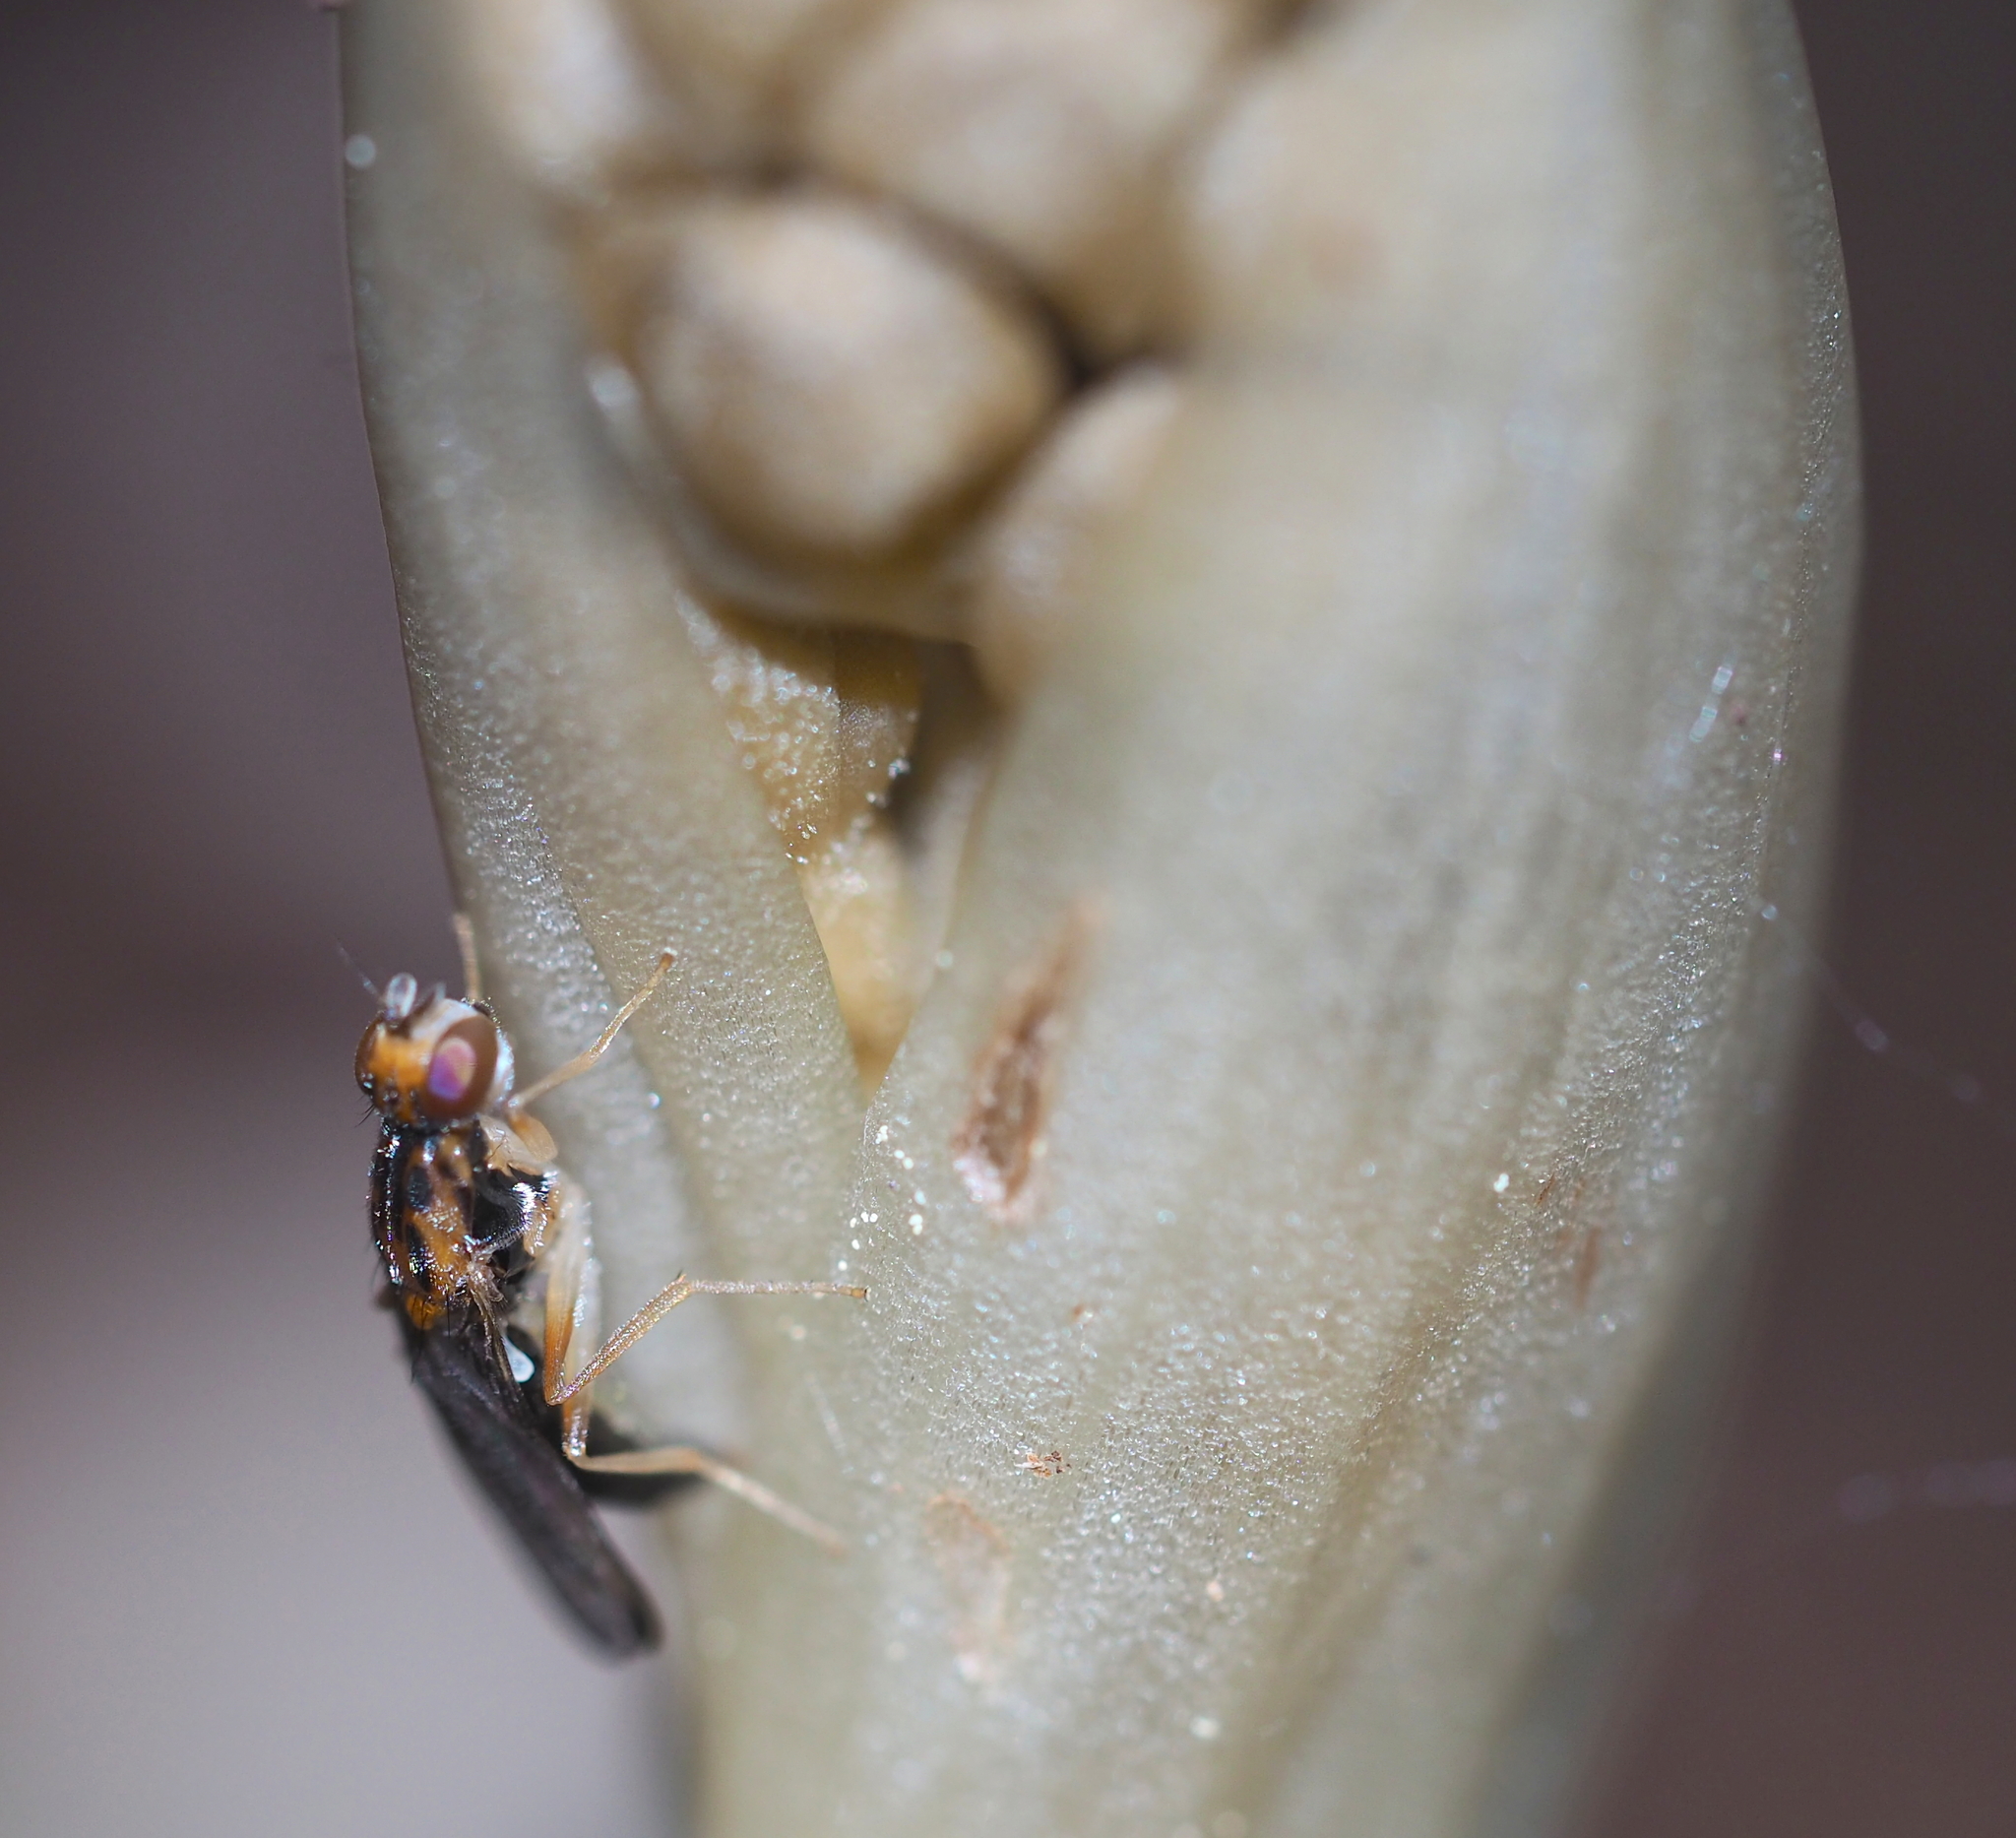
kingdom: Animalia
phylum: Arthropoda
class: Insecta
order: Diptera
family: Psilidae
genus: Chyliza
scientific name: Chyliza vittata
